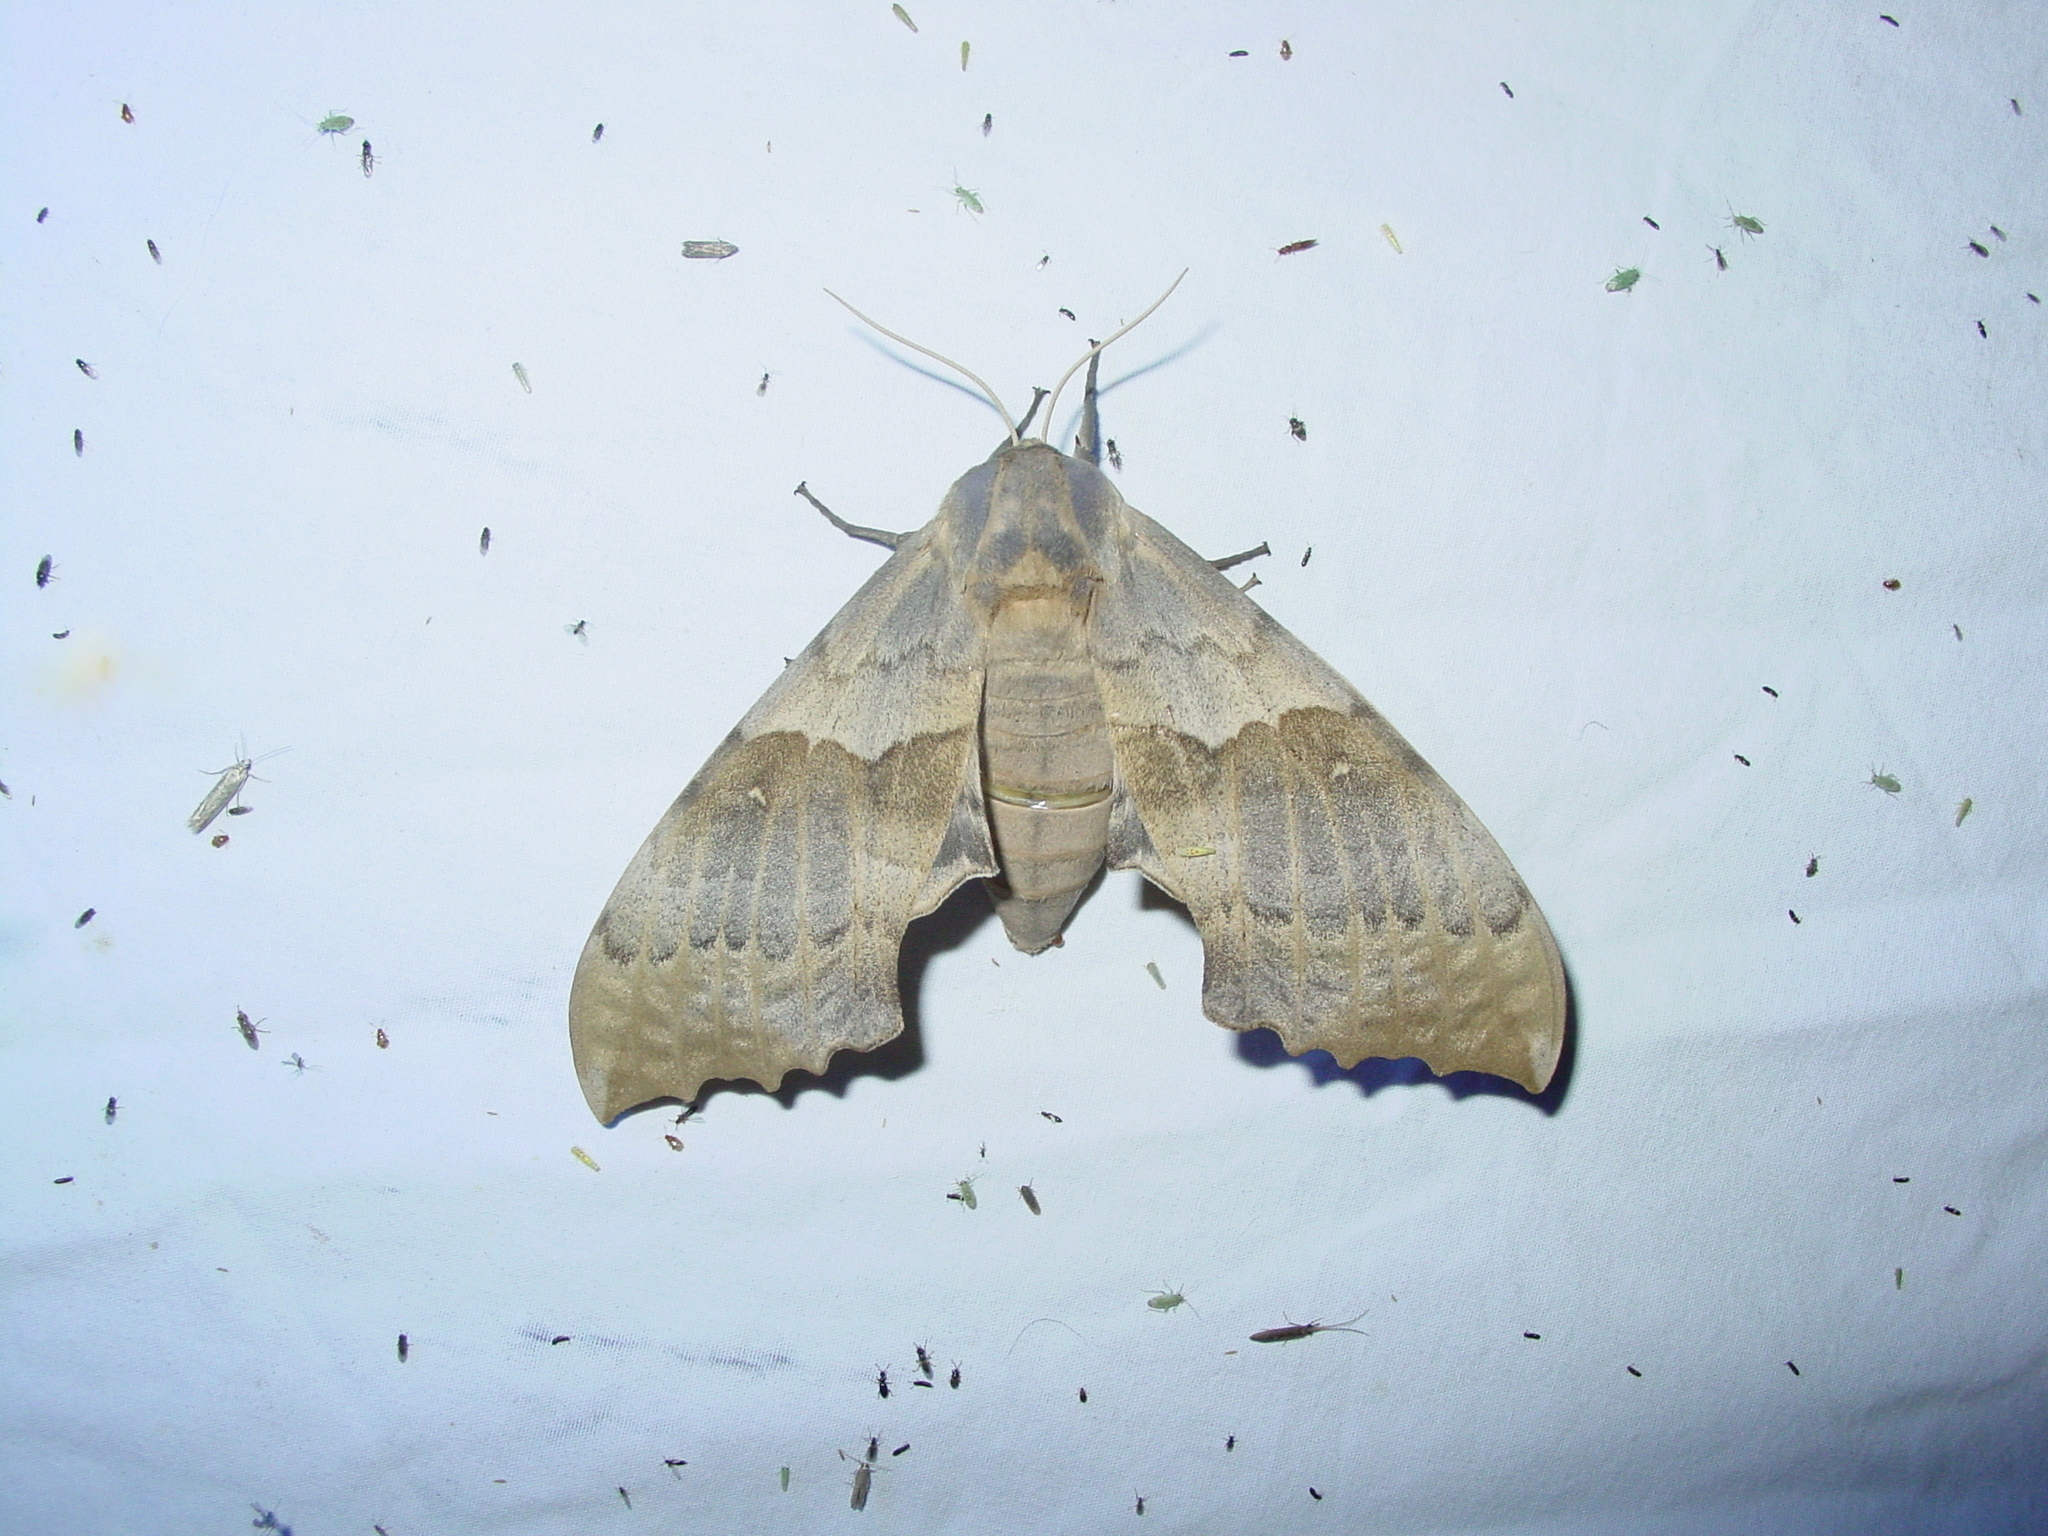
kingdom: Animalia
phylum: Arthropoda
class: Insecta
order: Lepidoptera
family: Sphingidae
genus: Pachysphinx
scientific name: Pachysphinx occidentalis
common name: Western poplar sphinx
